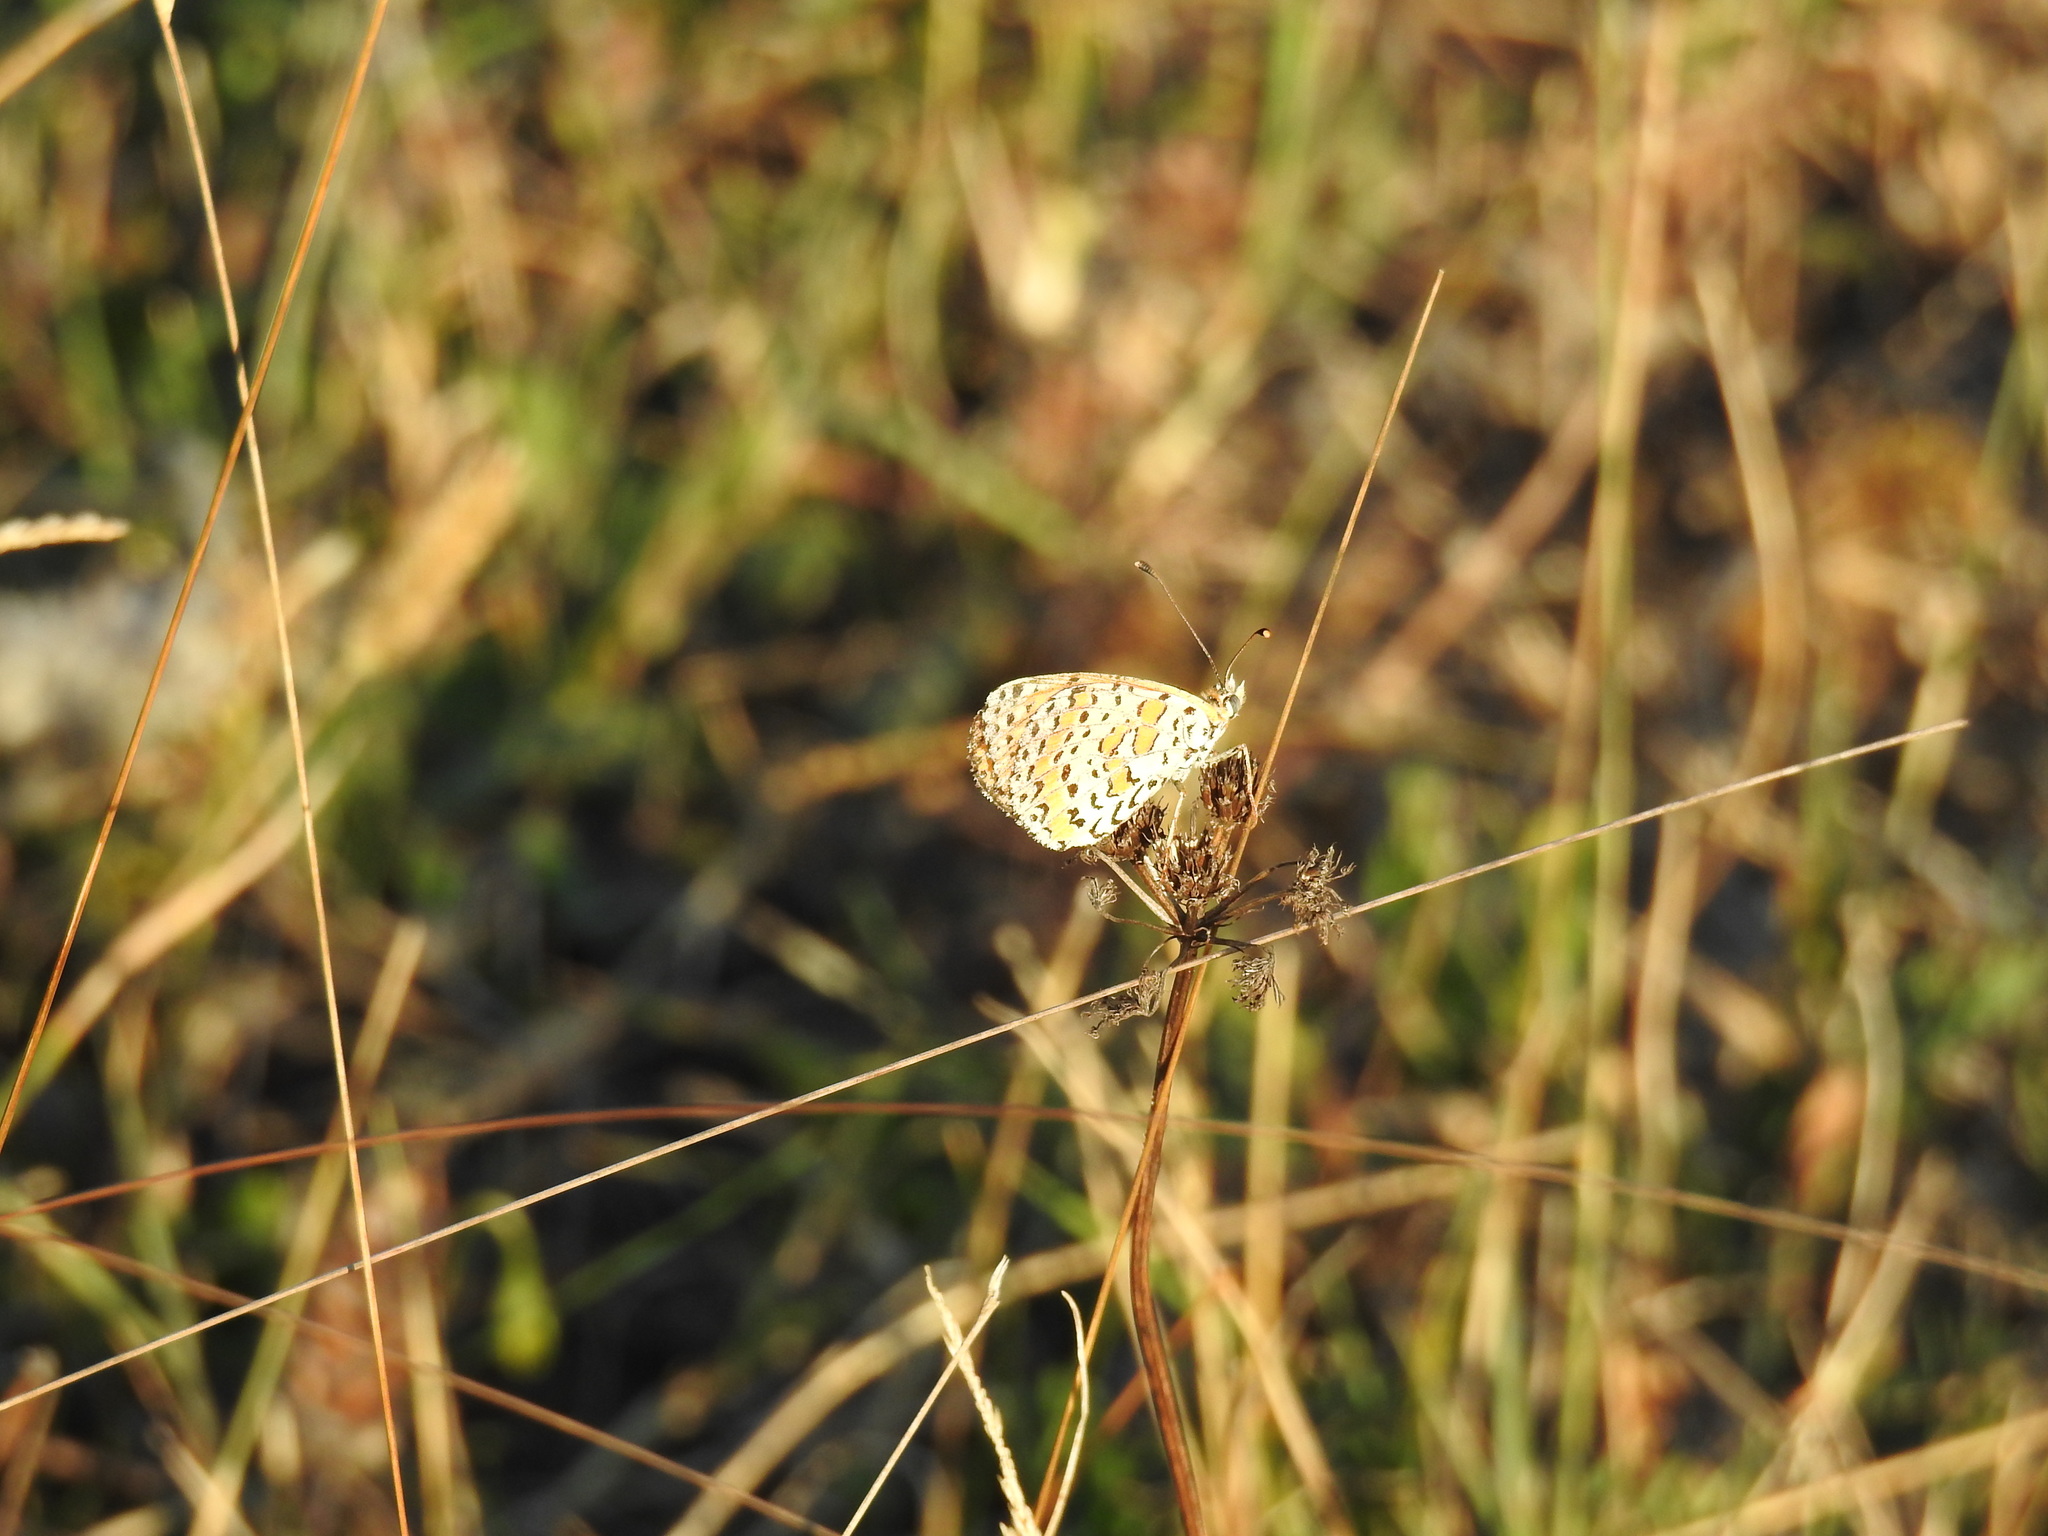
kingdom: Animalia
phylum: Arthropoda
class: Insecta
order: Lepidoptera
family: Nymphalidae
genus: Melitaea
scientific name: Melitaea didyma
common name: Spotted fritillary
